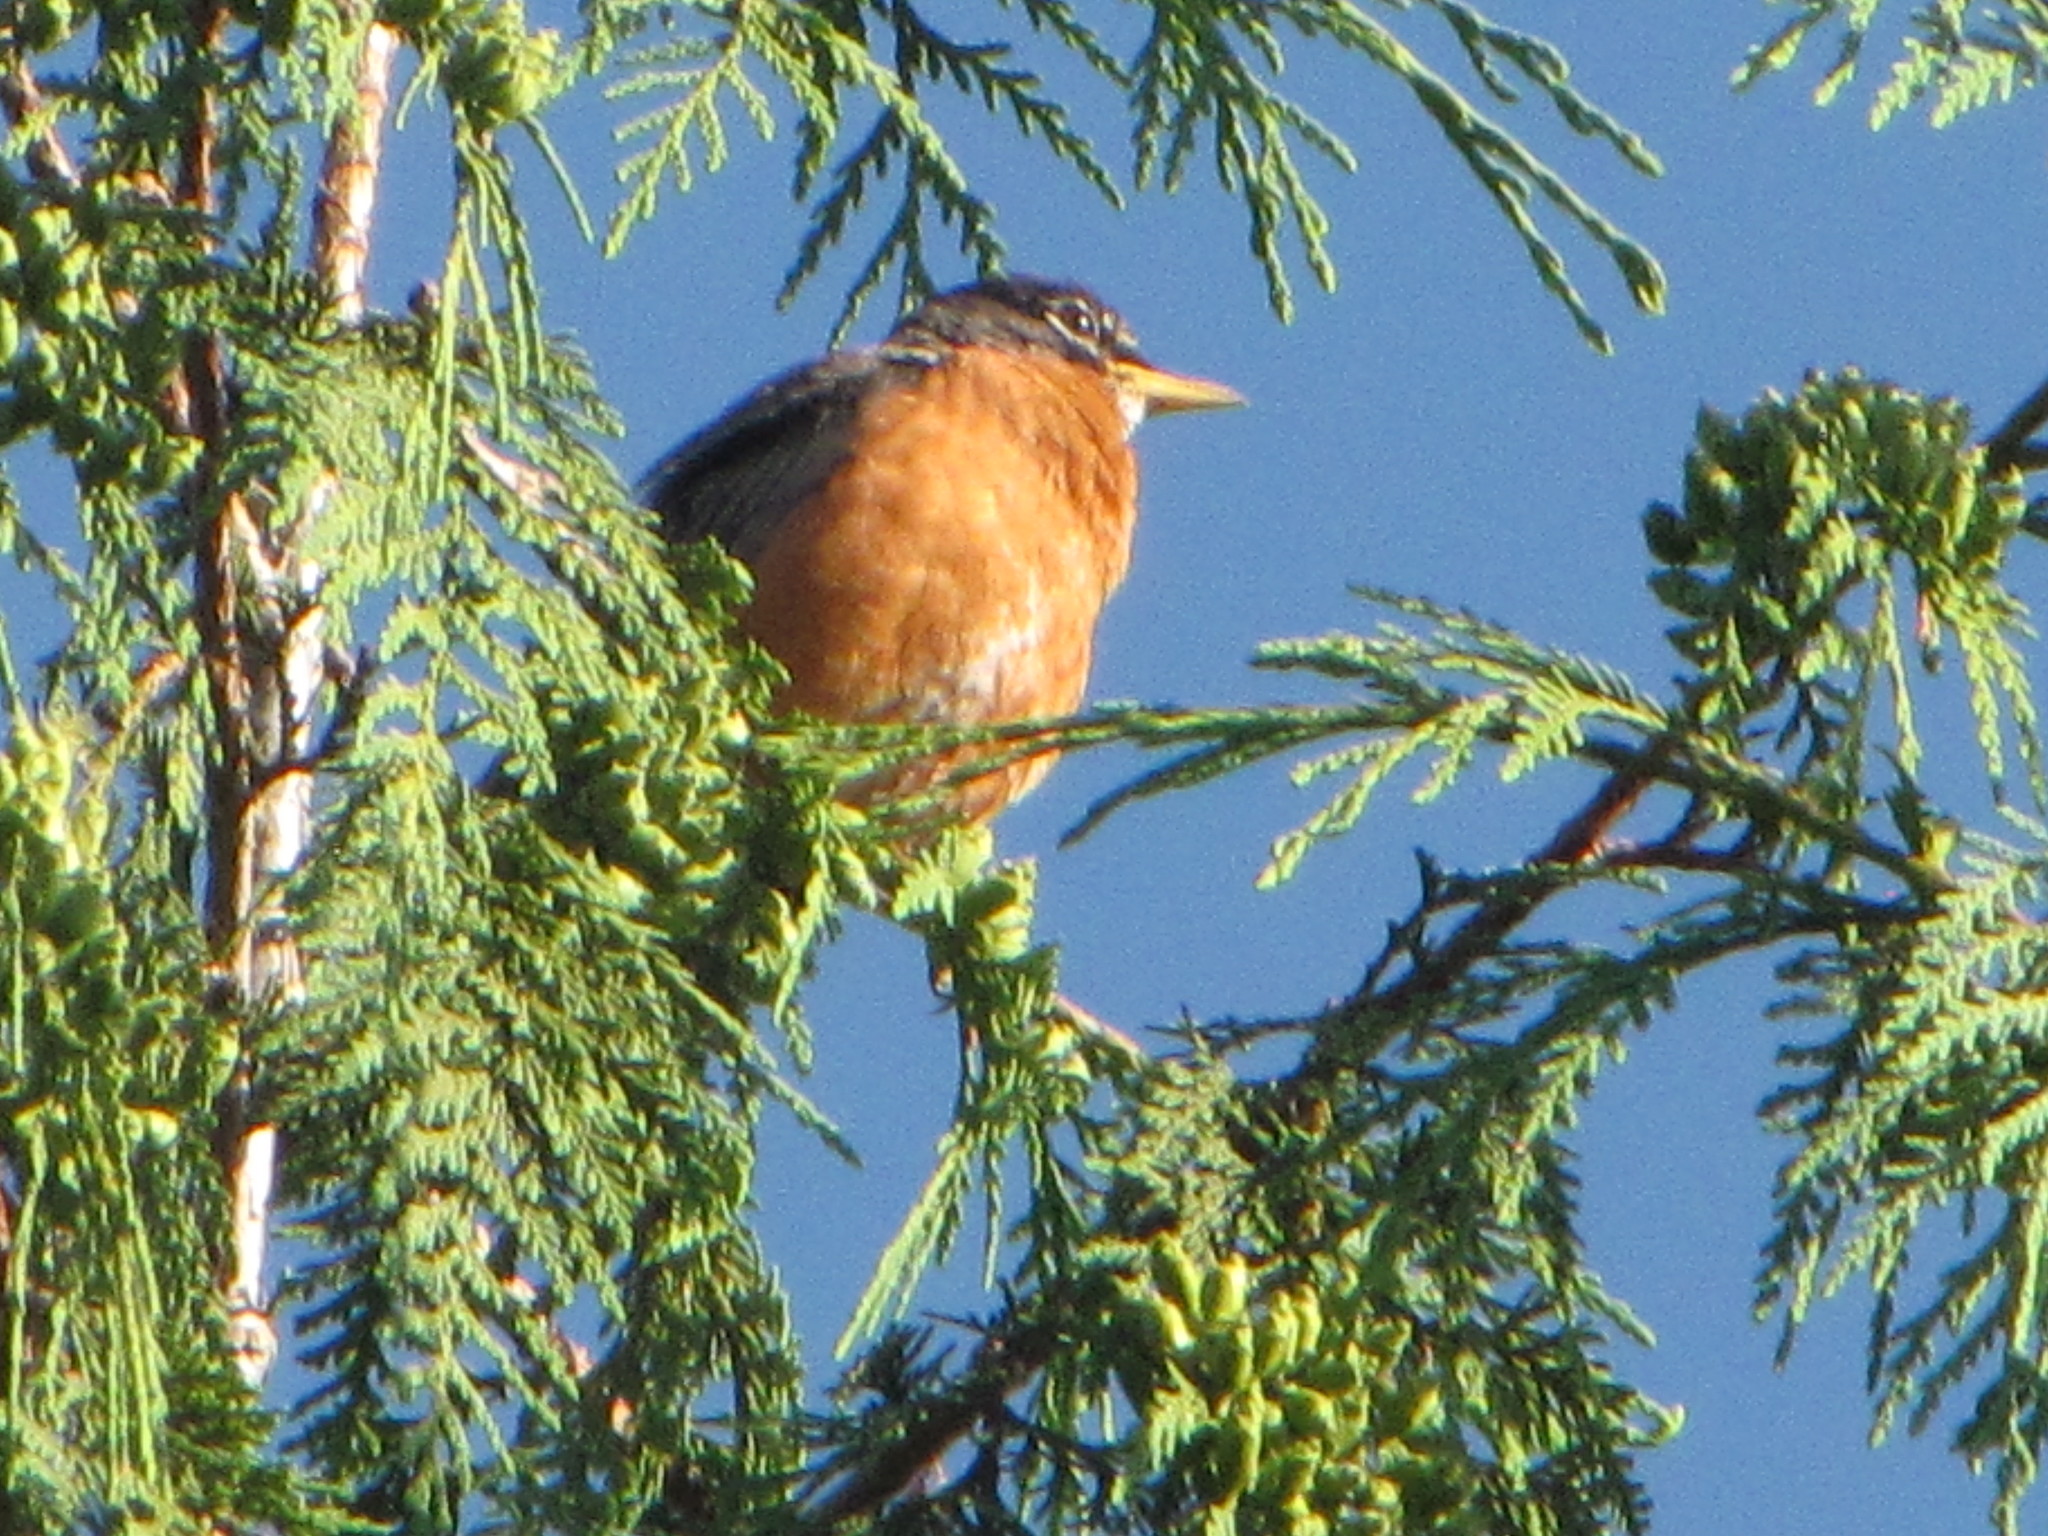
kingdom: Animalia
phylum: Chordata
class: Aves
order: Passeriformes
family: Turdidae
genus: Turdus
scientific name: Turdus migratorius
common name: American robin
